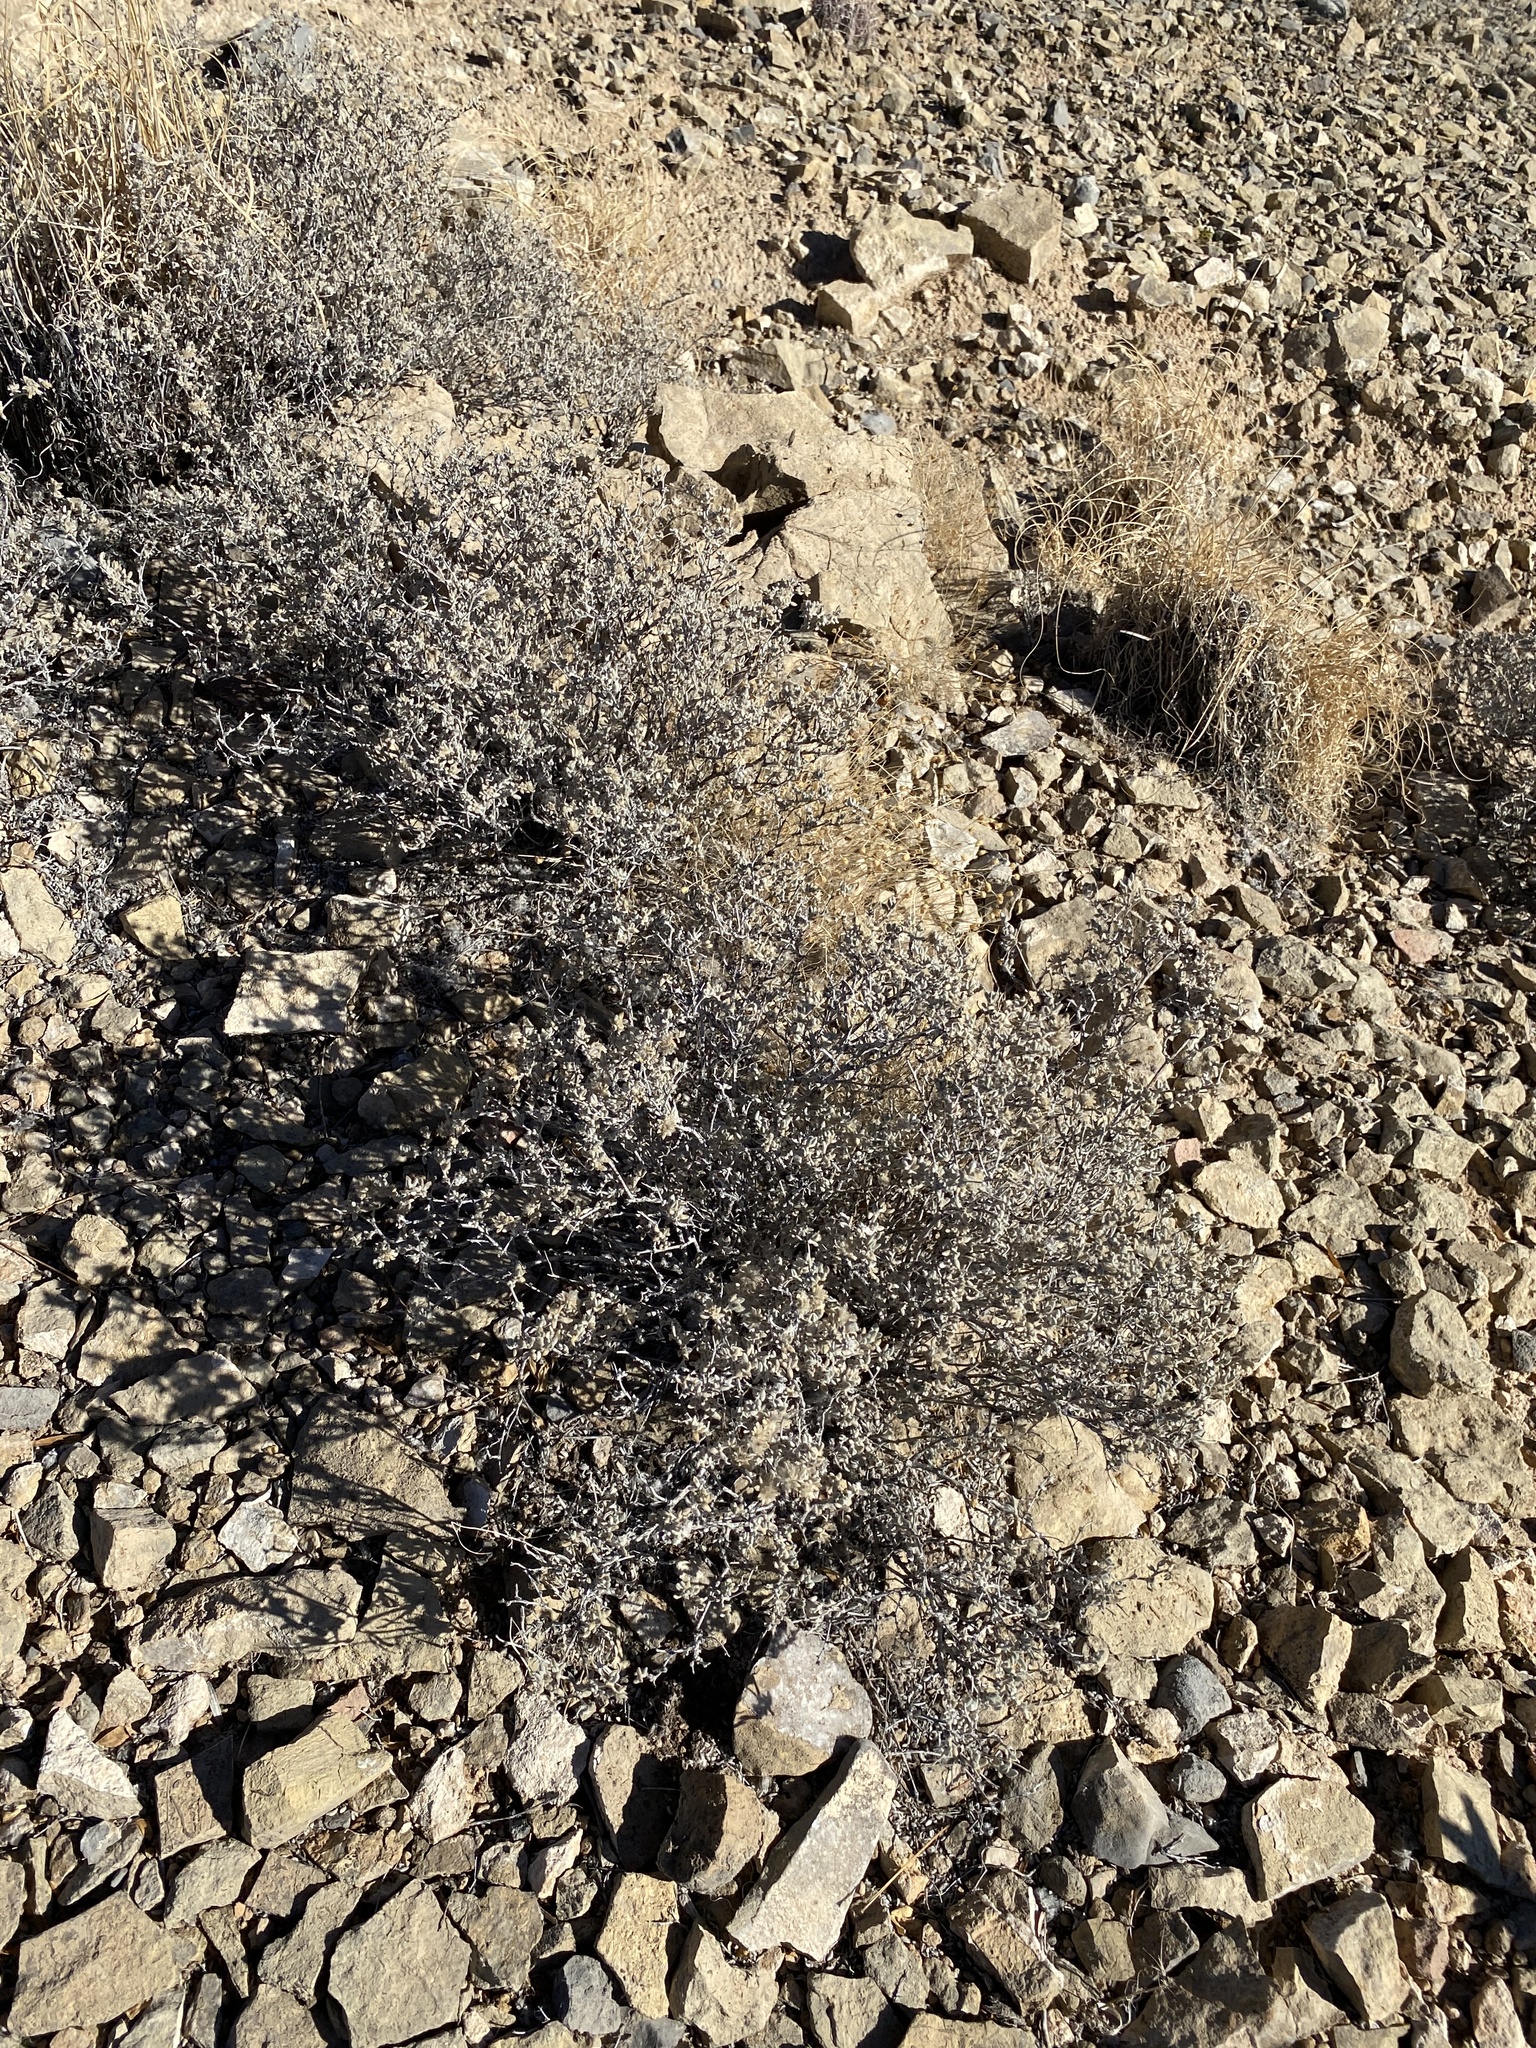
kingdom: Plantae
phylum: Tracheophyta
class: Magnoliopsida
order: Boraginales
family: Ehretiaceae
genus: Tiquilia
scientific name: Tiquilia greggii
